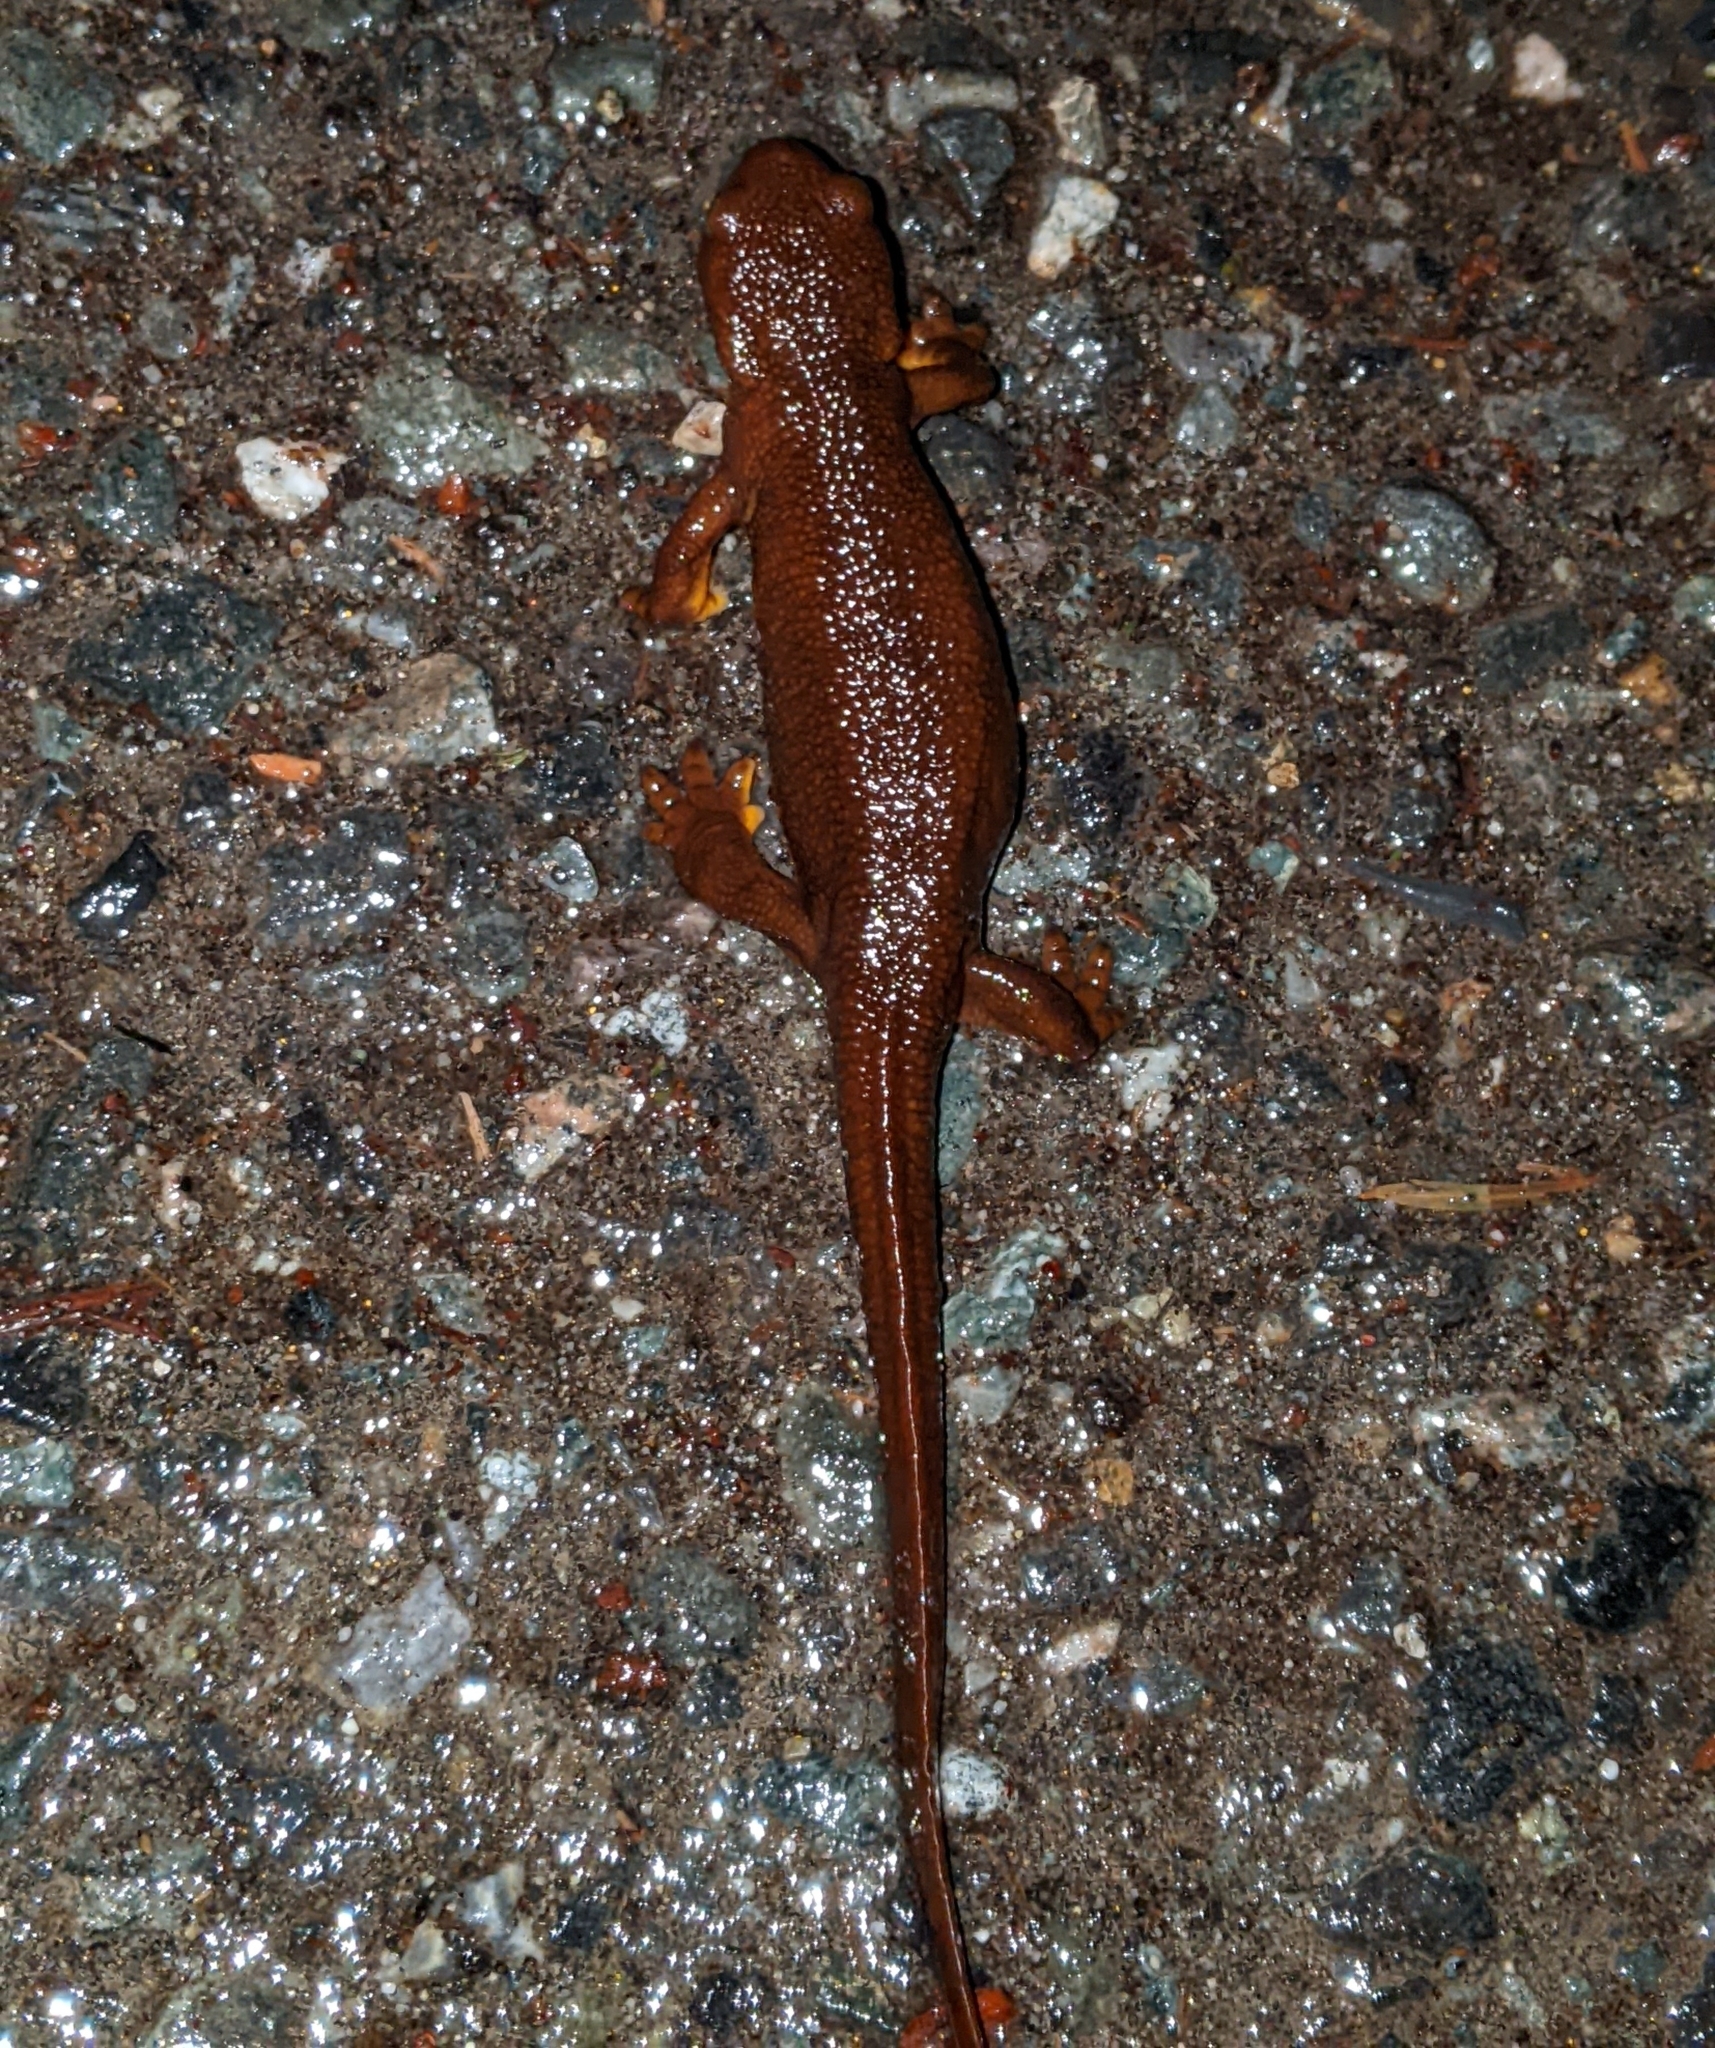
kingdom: Animalia
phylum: Chordata
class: Amphibia
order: Caudata
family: Salamandridae
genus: Taricha
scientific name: Taricha granulosa
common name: Roughskin newt
